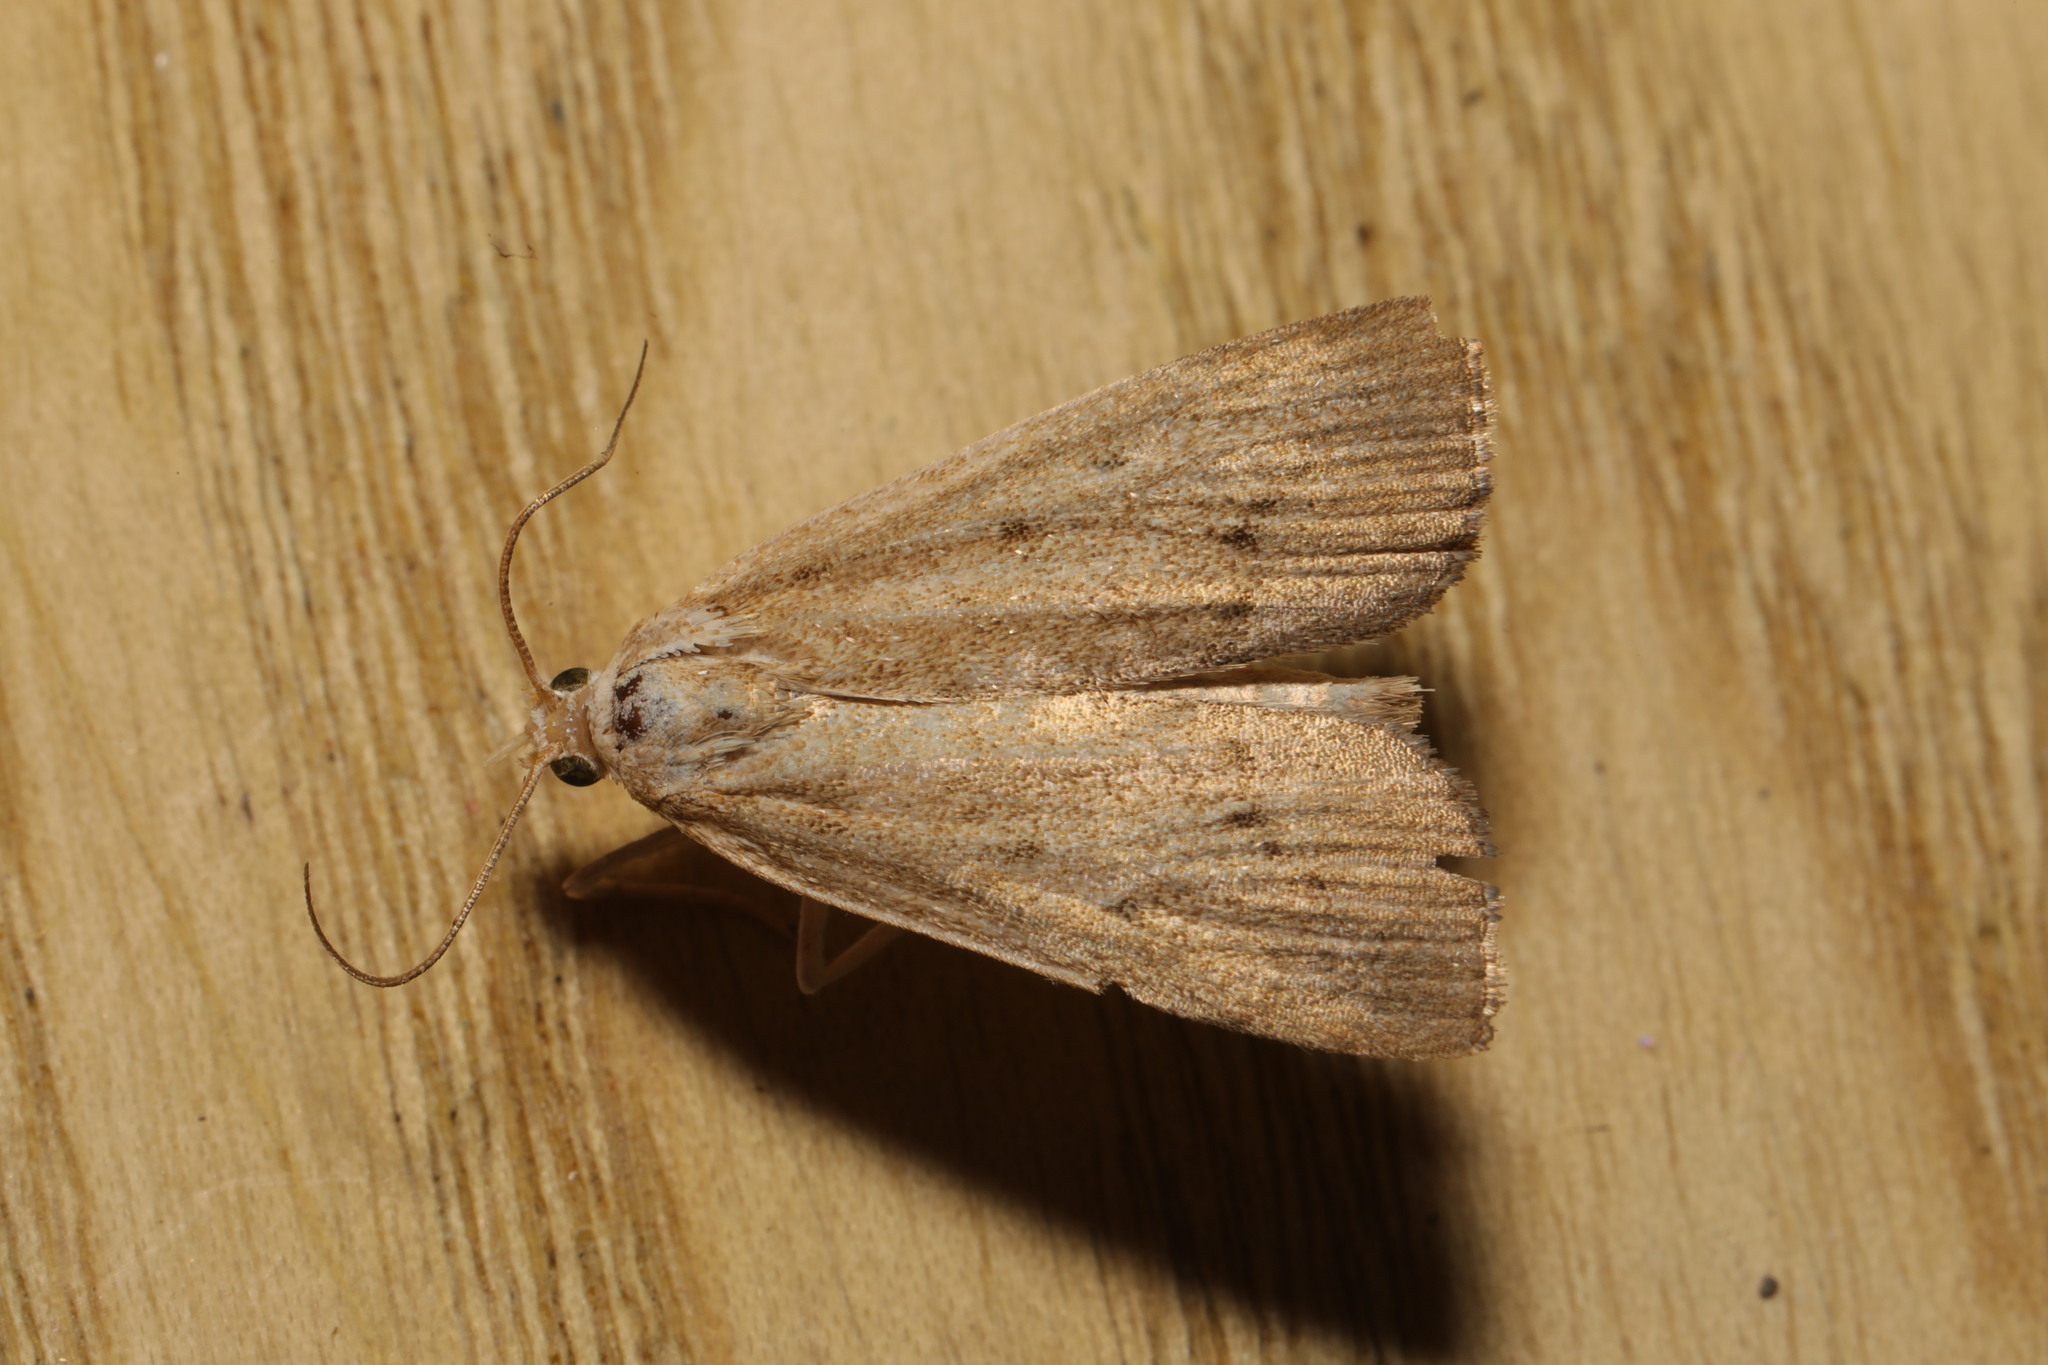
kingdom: Animalia
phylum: Arthropoda
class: Insecta
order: Lepidoptera
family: Crambidae
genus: Calamotropha
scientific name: Calamotropha paludella
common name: Bulrush veneer
